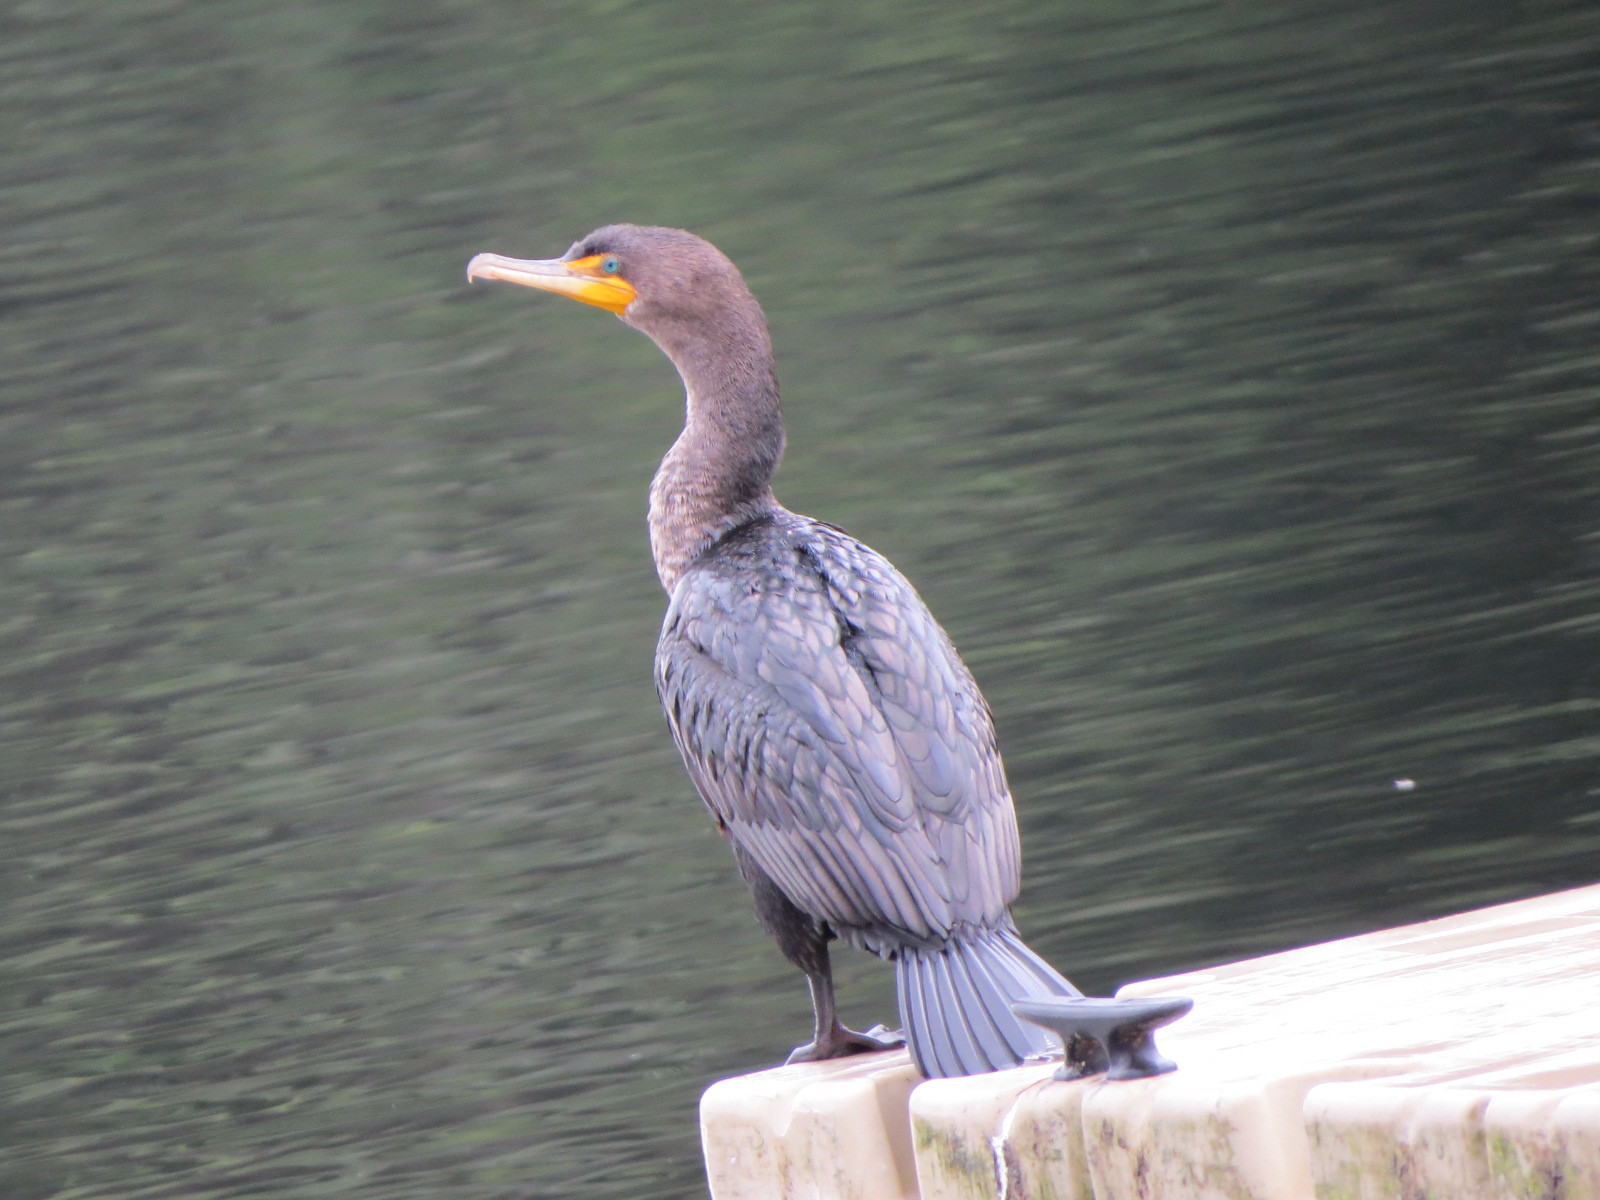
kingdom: Animalia
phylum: Chordata
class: Aves
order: Suliformes
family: Phalacrocoracidae
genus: Phalacrocorax
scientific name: Phalacrocorax auritus
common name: Double-crested cormorant
